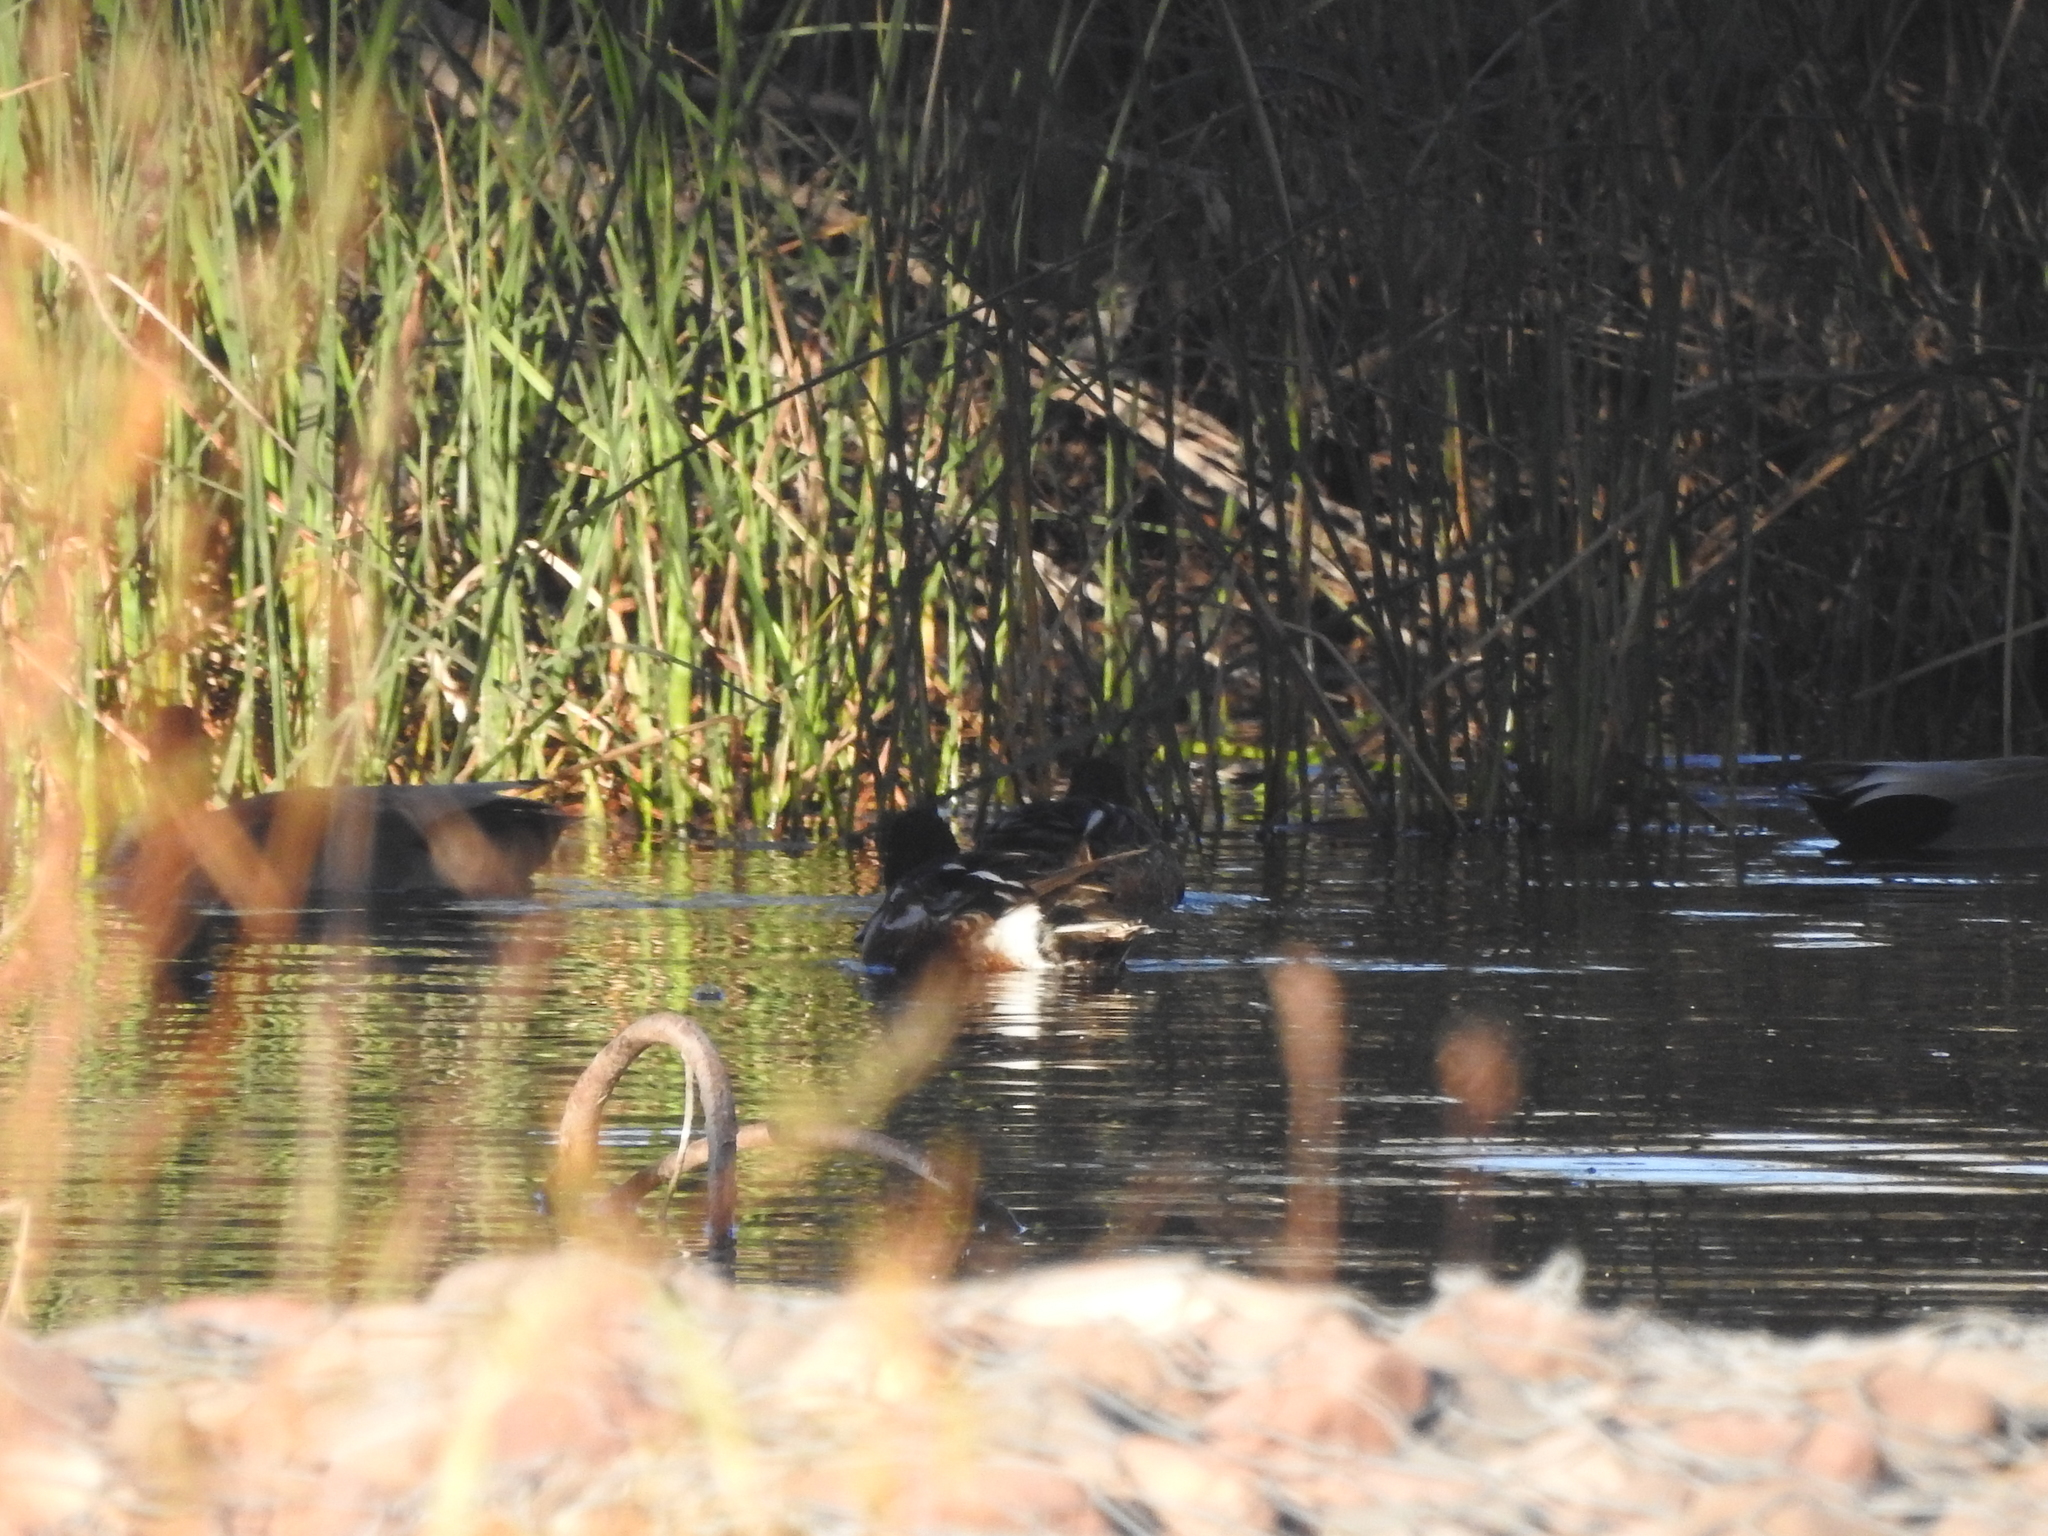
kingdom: Animalia
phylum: Chordata
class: Aves
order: Anseriformes
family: Anatidae
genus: Spatula
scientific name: Spatula clypeata
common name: Northern shoveler
